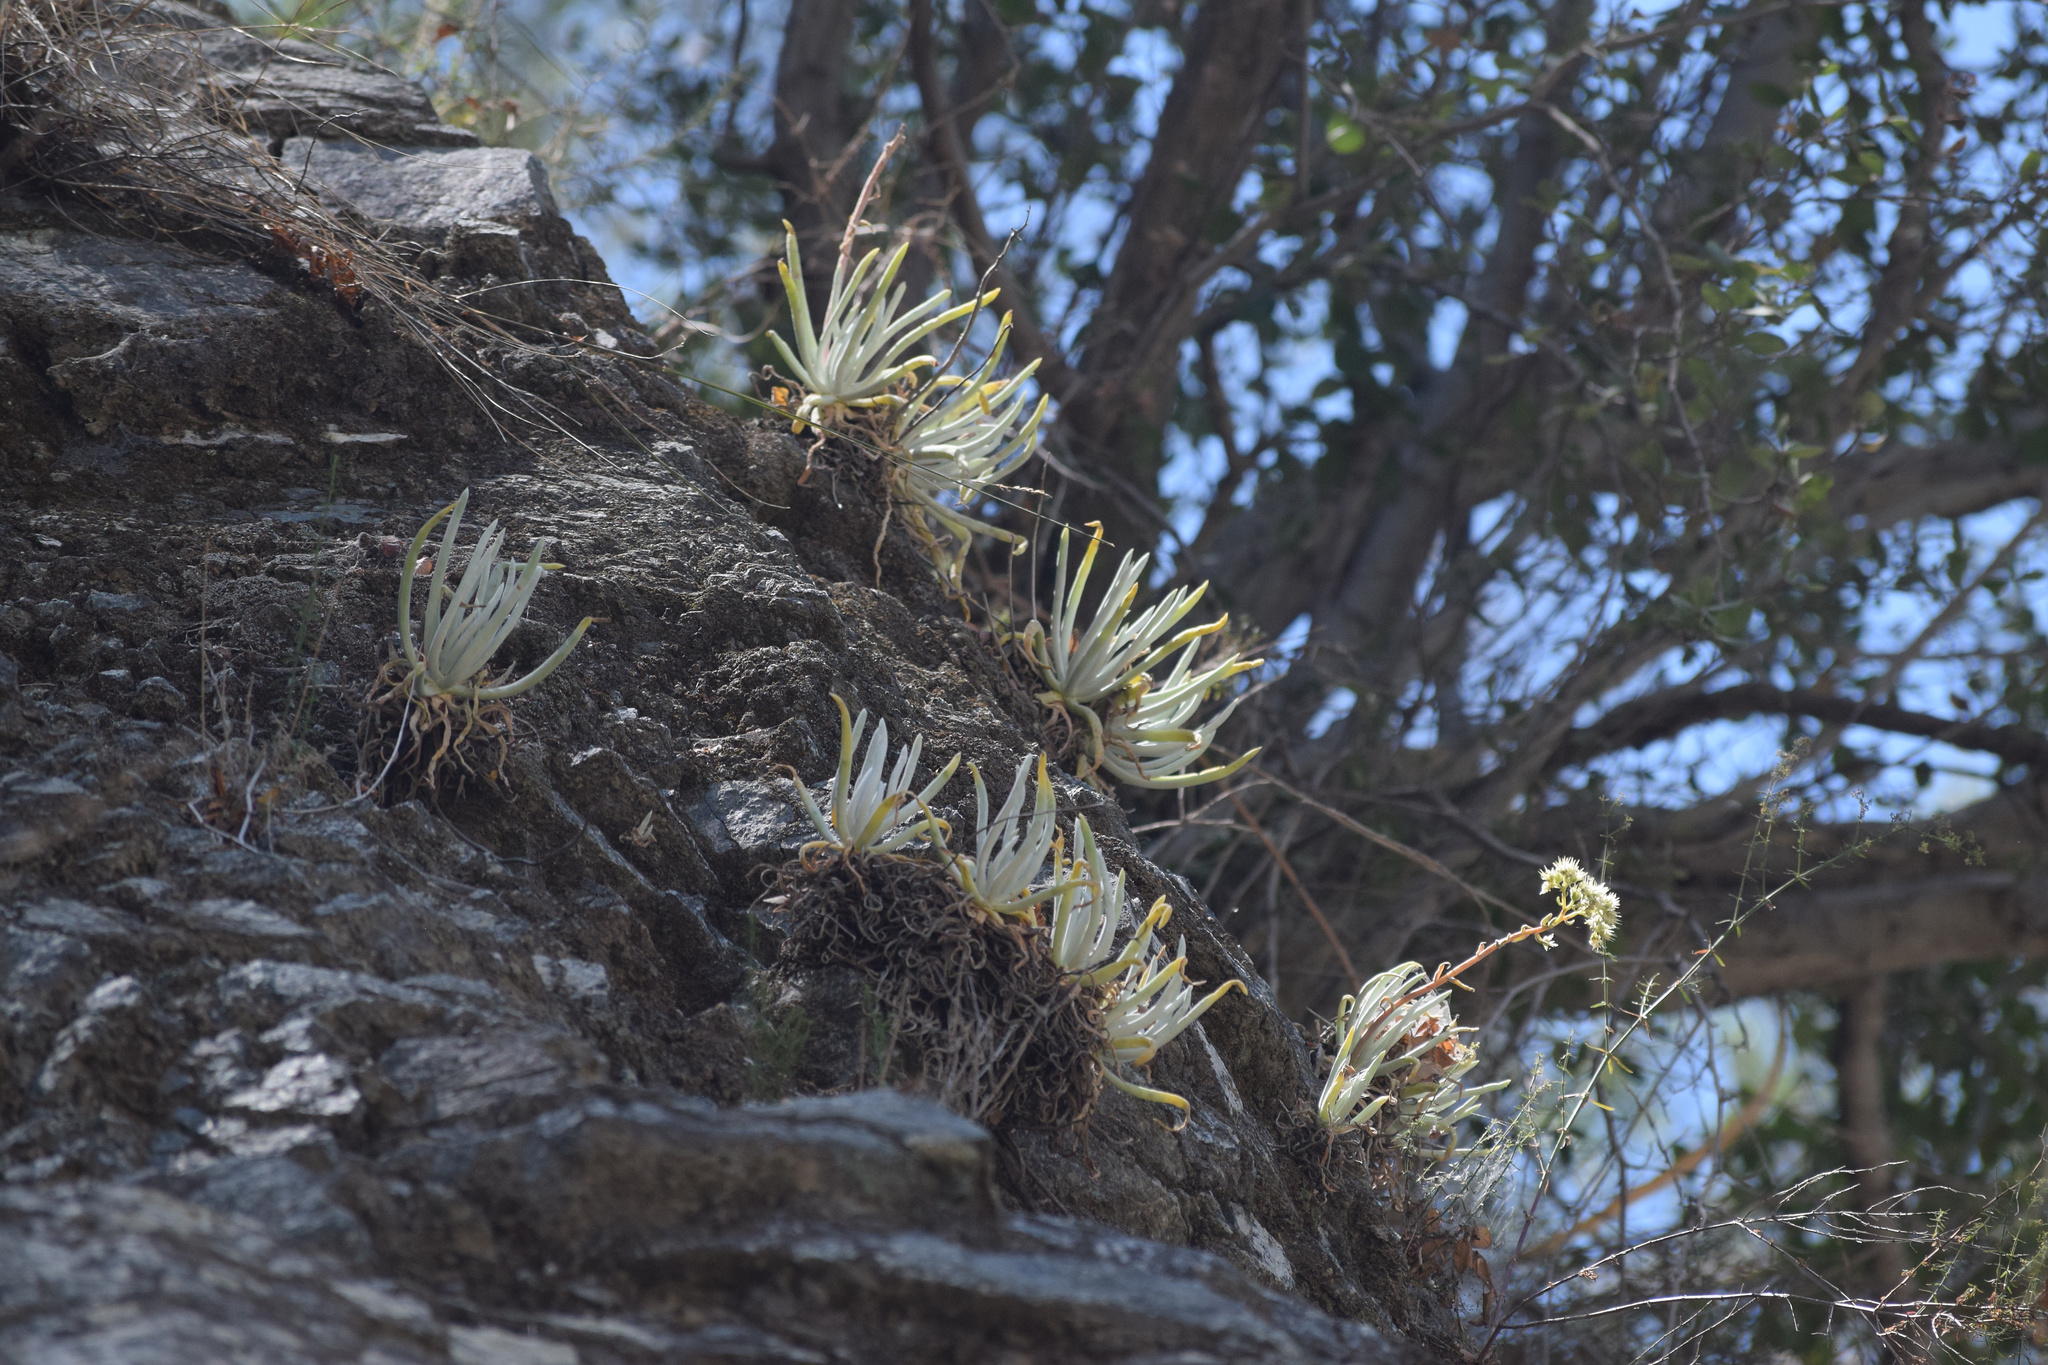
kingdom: Plantae
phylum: Tracheophyta
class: Magnoliopsida
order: Saxifragales
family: Crassulaceae
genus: Dudleya
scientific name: Dudleya densiflora
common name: San gabriel mountains dudleya
